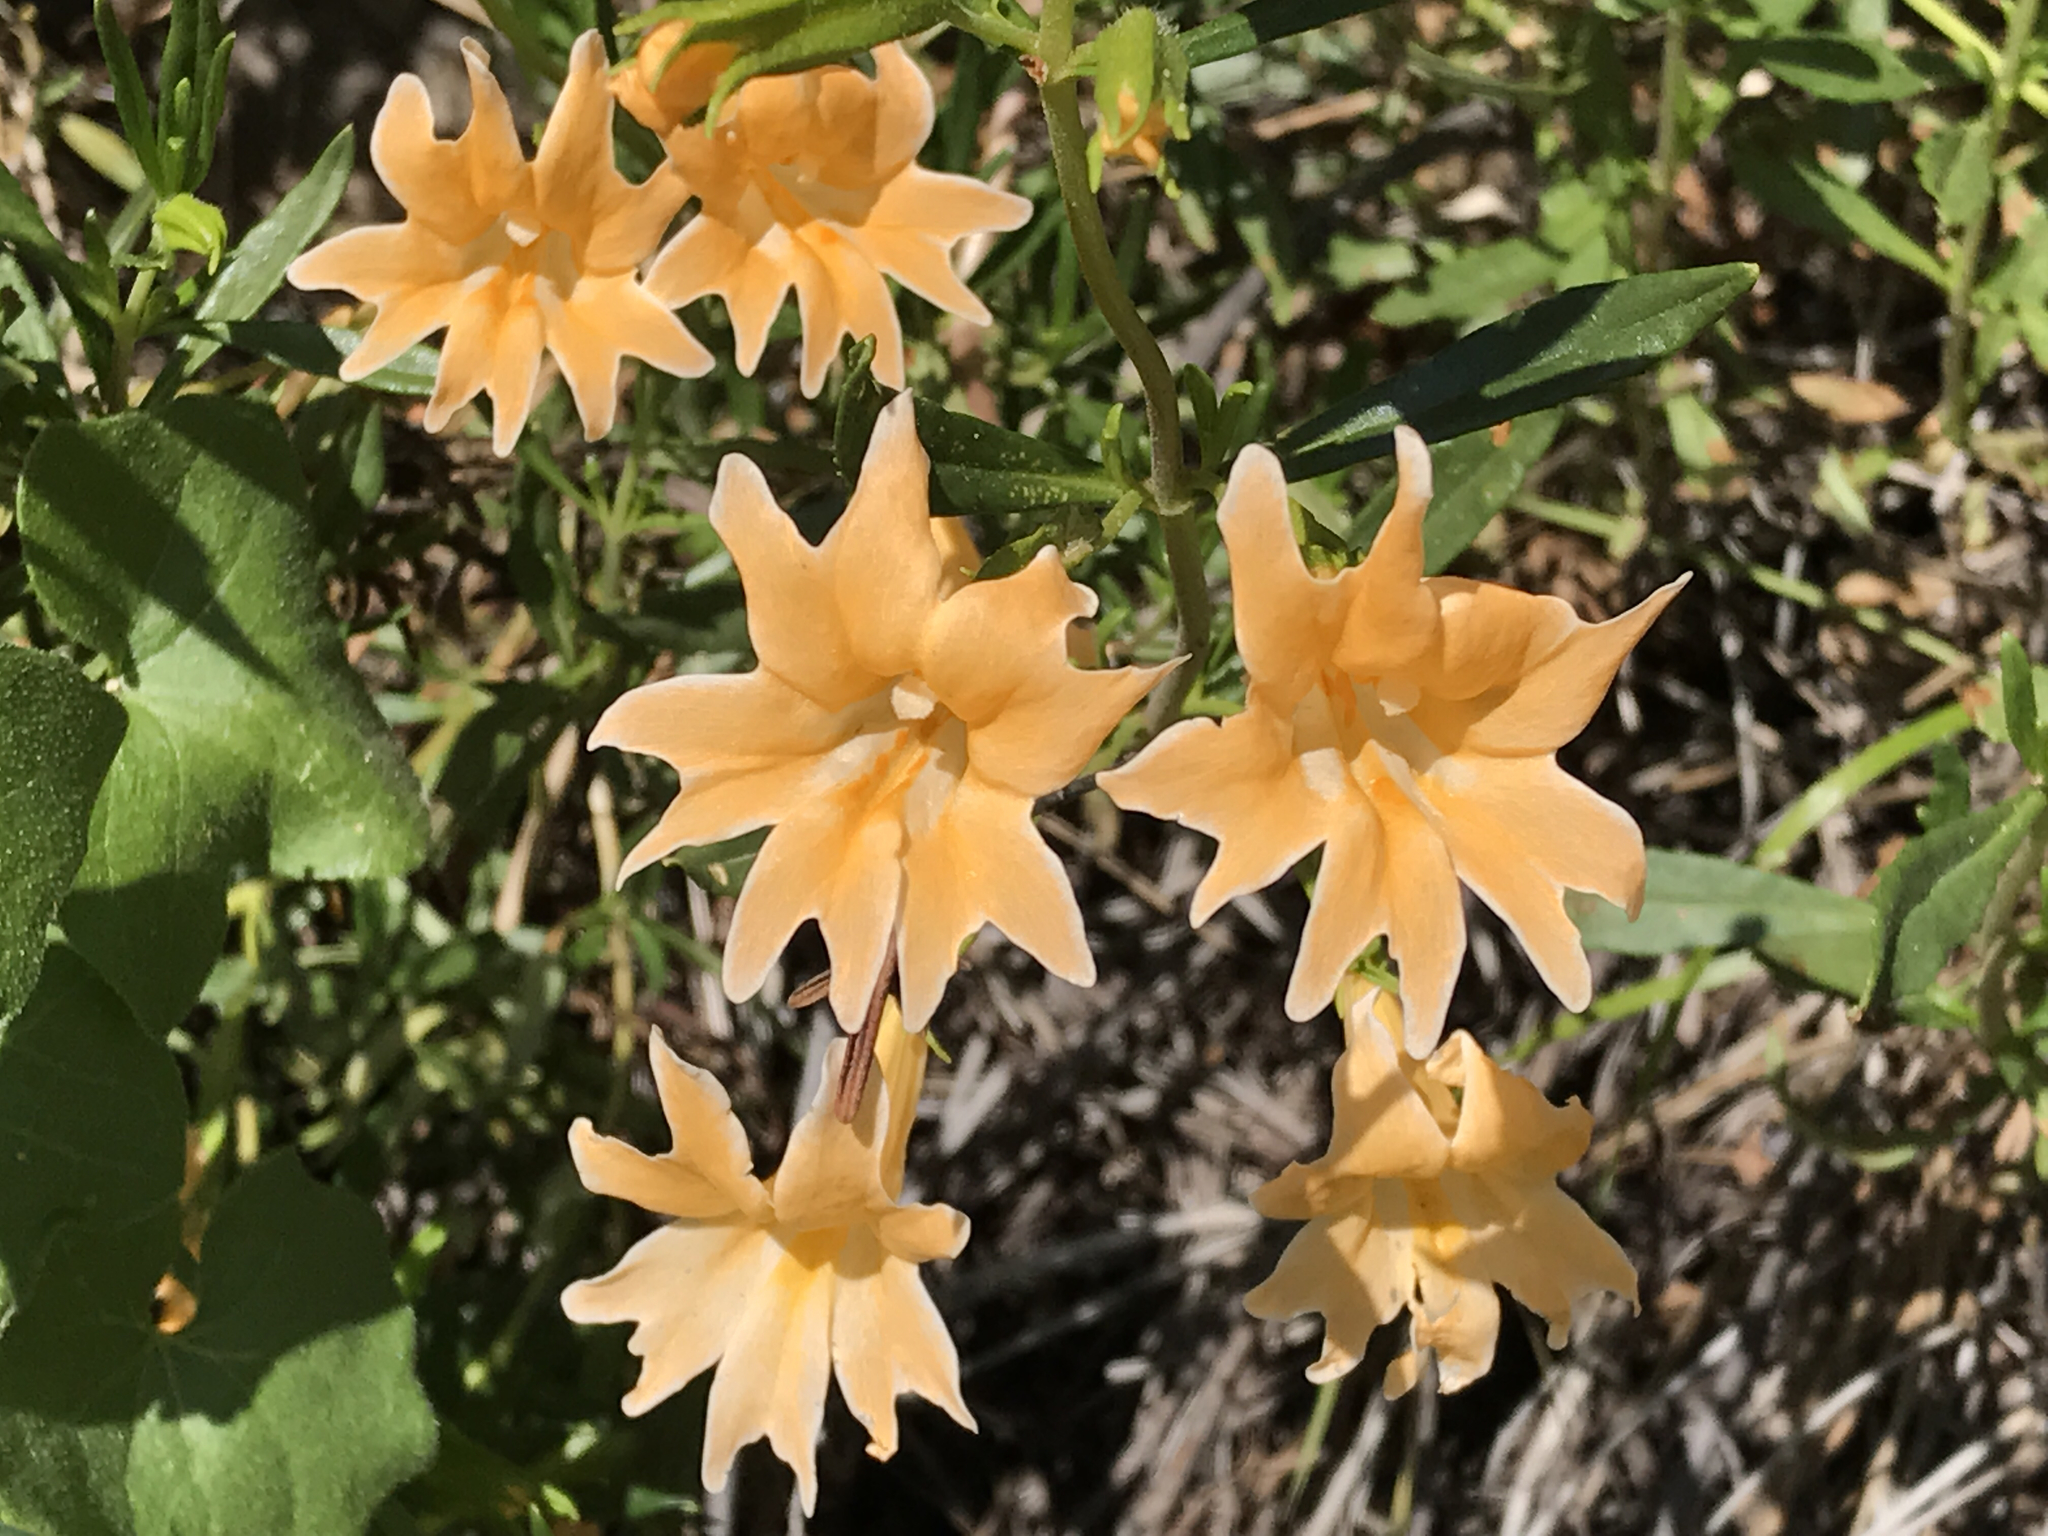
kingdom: Plantae
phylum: Tracheophyta
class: Magnoliopsida
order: Lamiales
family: Phrymaceae
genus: Diplacus
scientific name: Diplacus linearis
